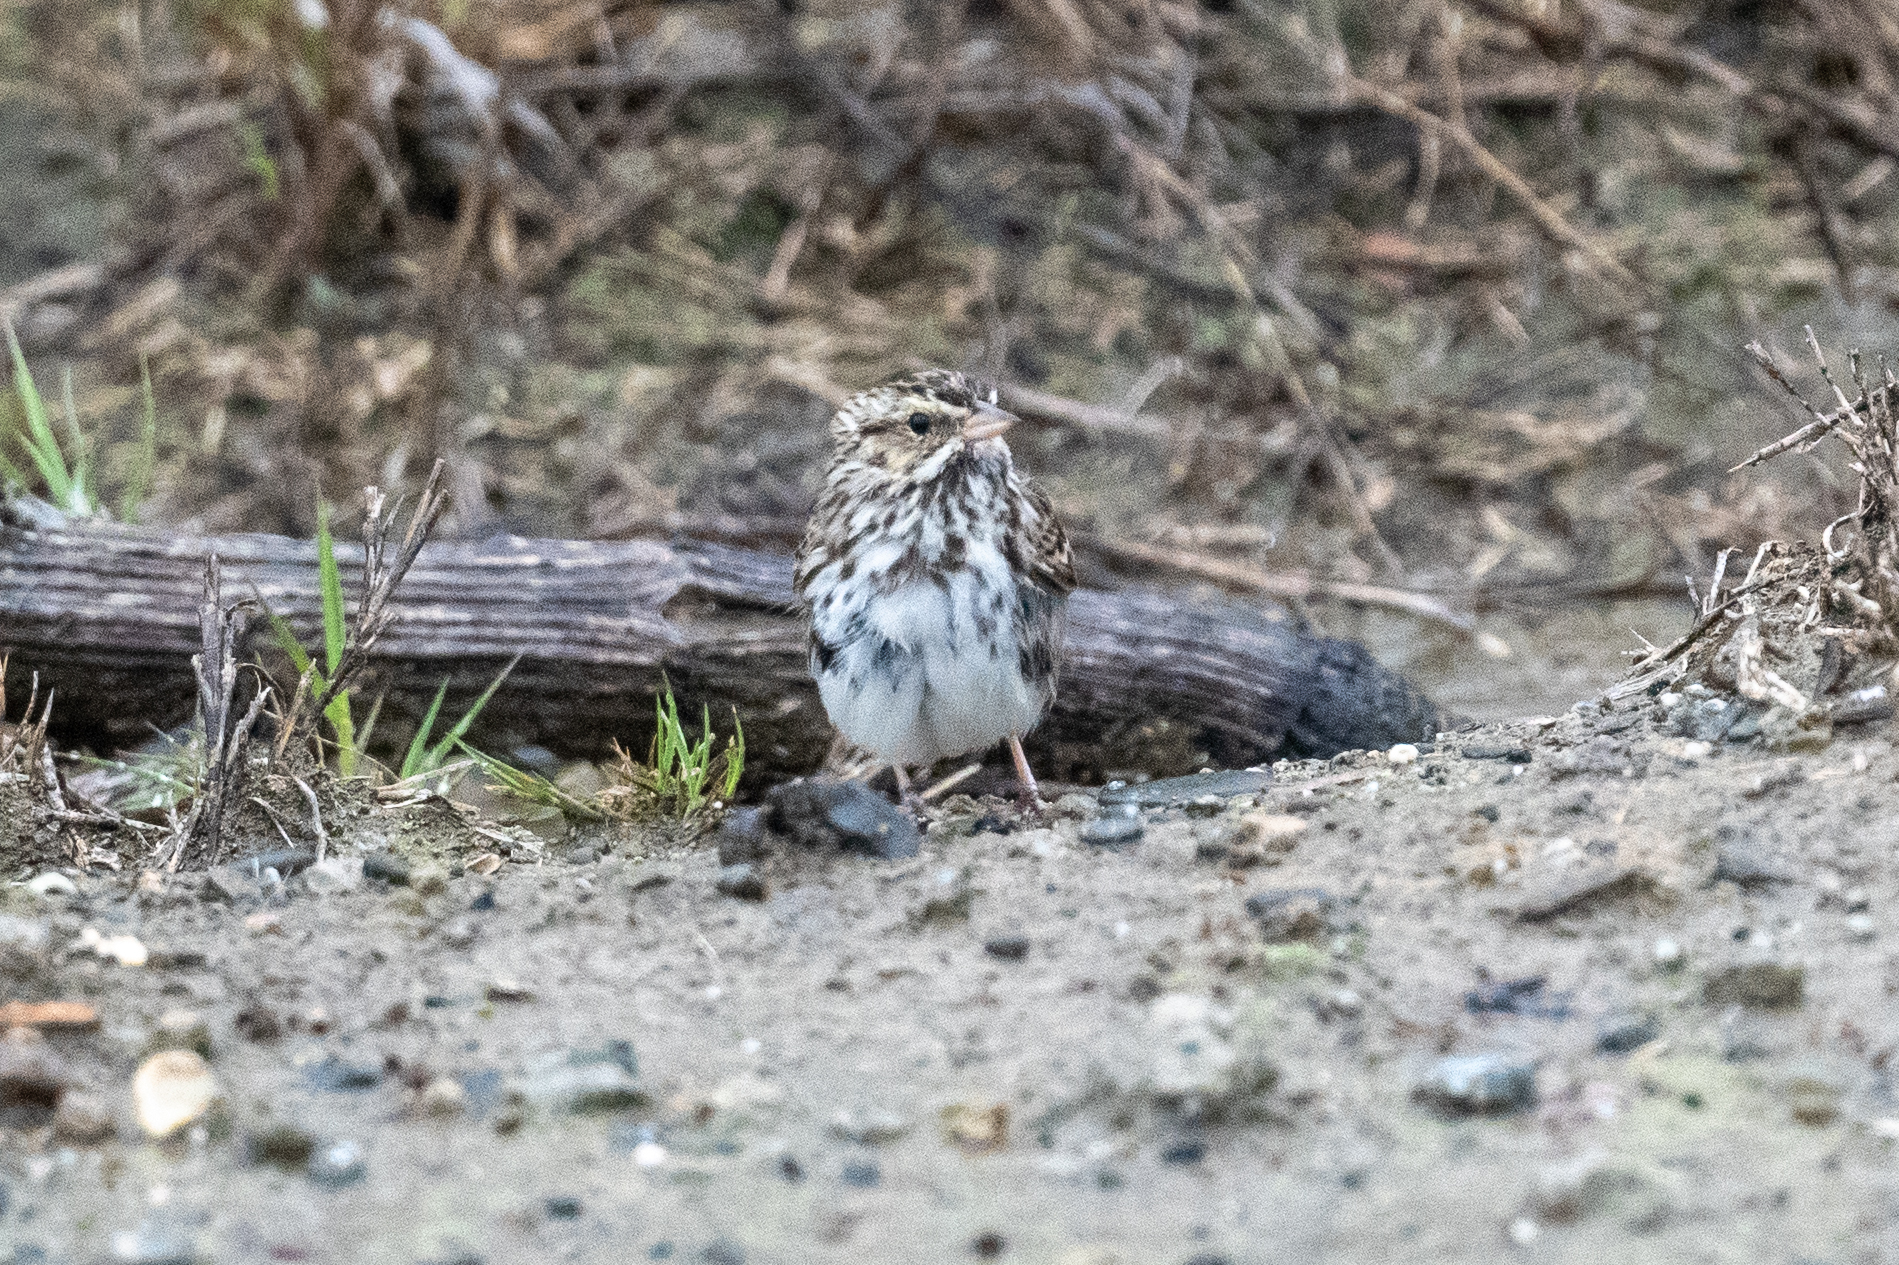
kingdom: Animalia
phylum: Chordata
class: Aves
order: Passeriformes
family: Passerellidae
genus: Passerculus
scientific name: Passerculus sandwichensis
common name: Savannah sparrow
